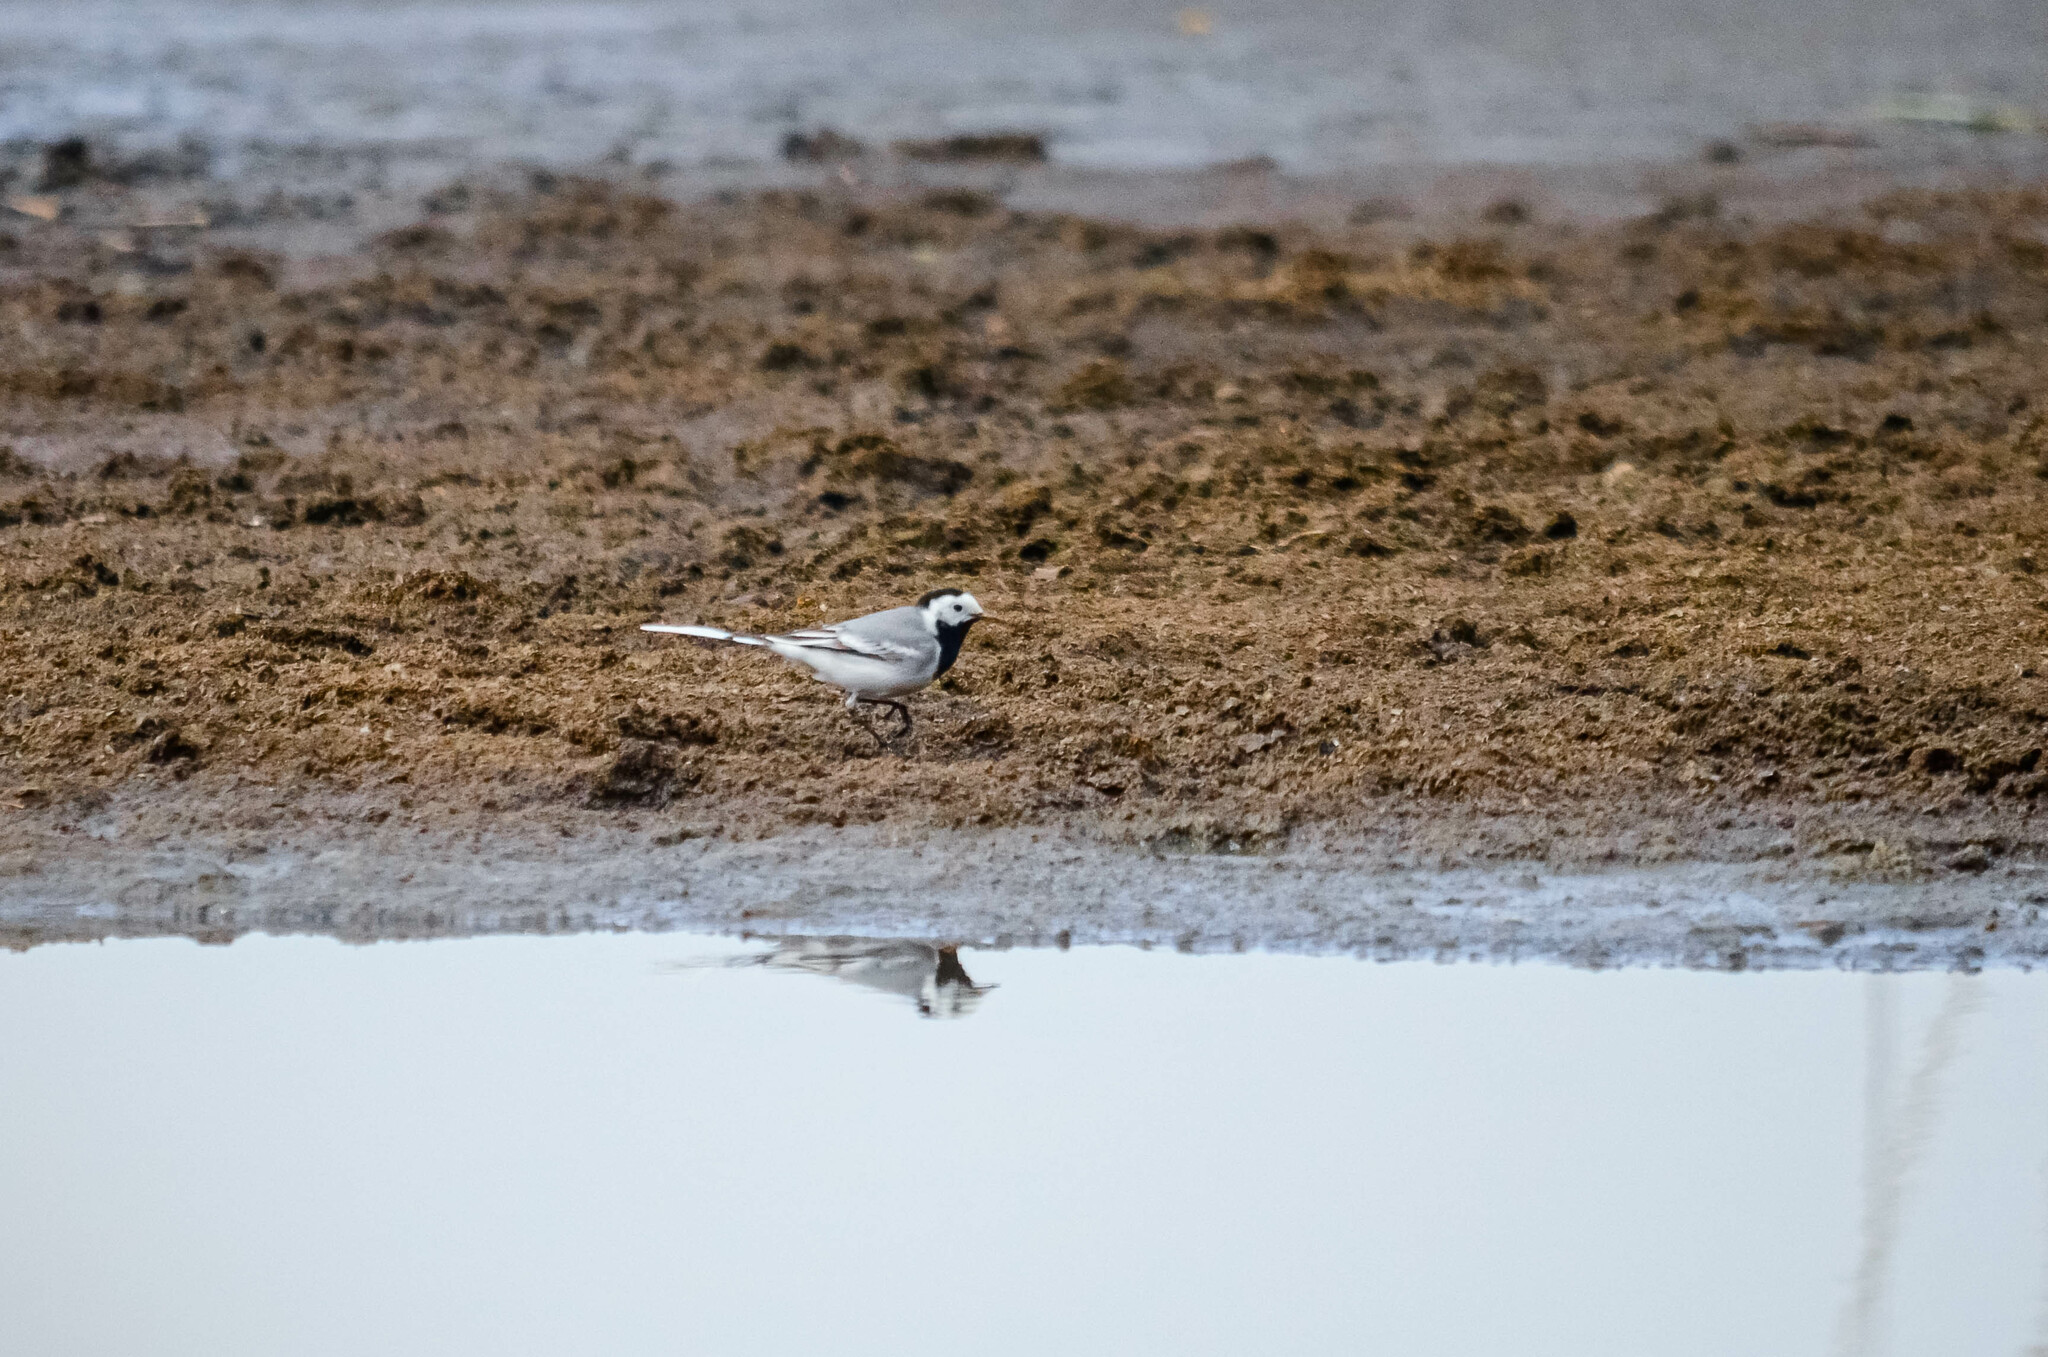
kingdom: Animalia
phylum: Chordata
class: Aves
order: Passeriformes
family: Motacillidae
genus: Motacilla
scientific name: Motacilla alba
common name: White wagtail
